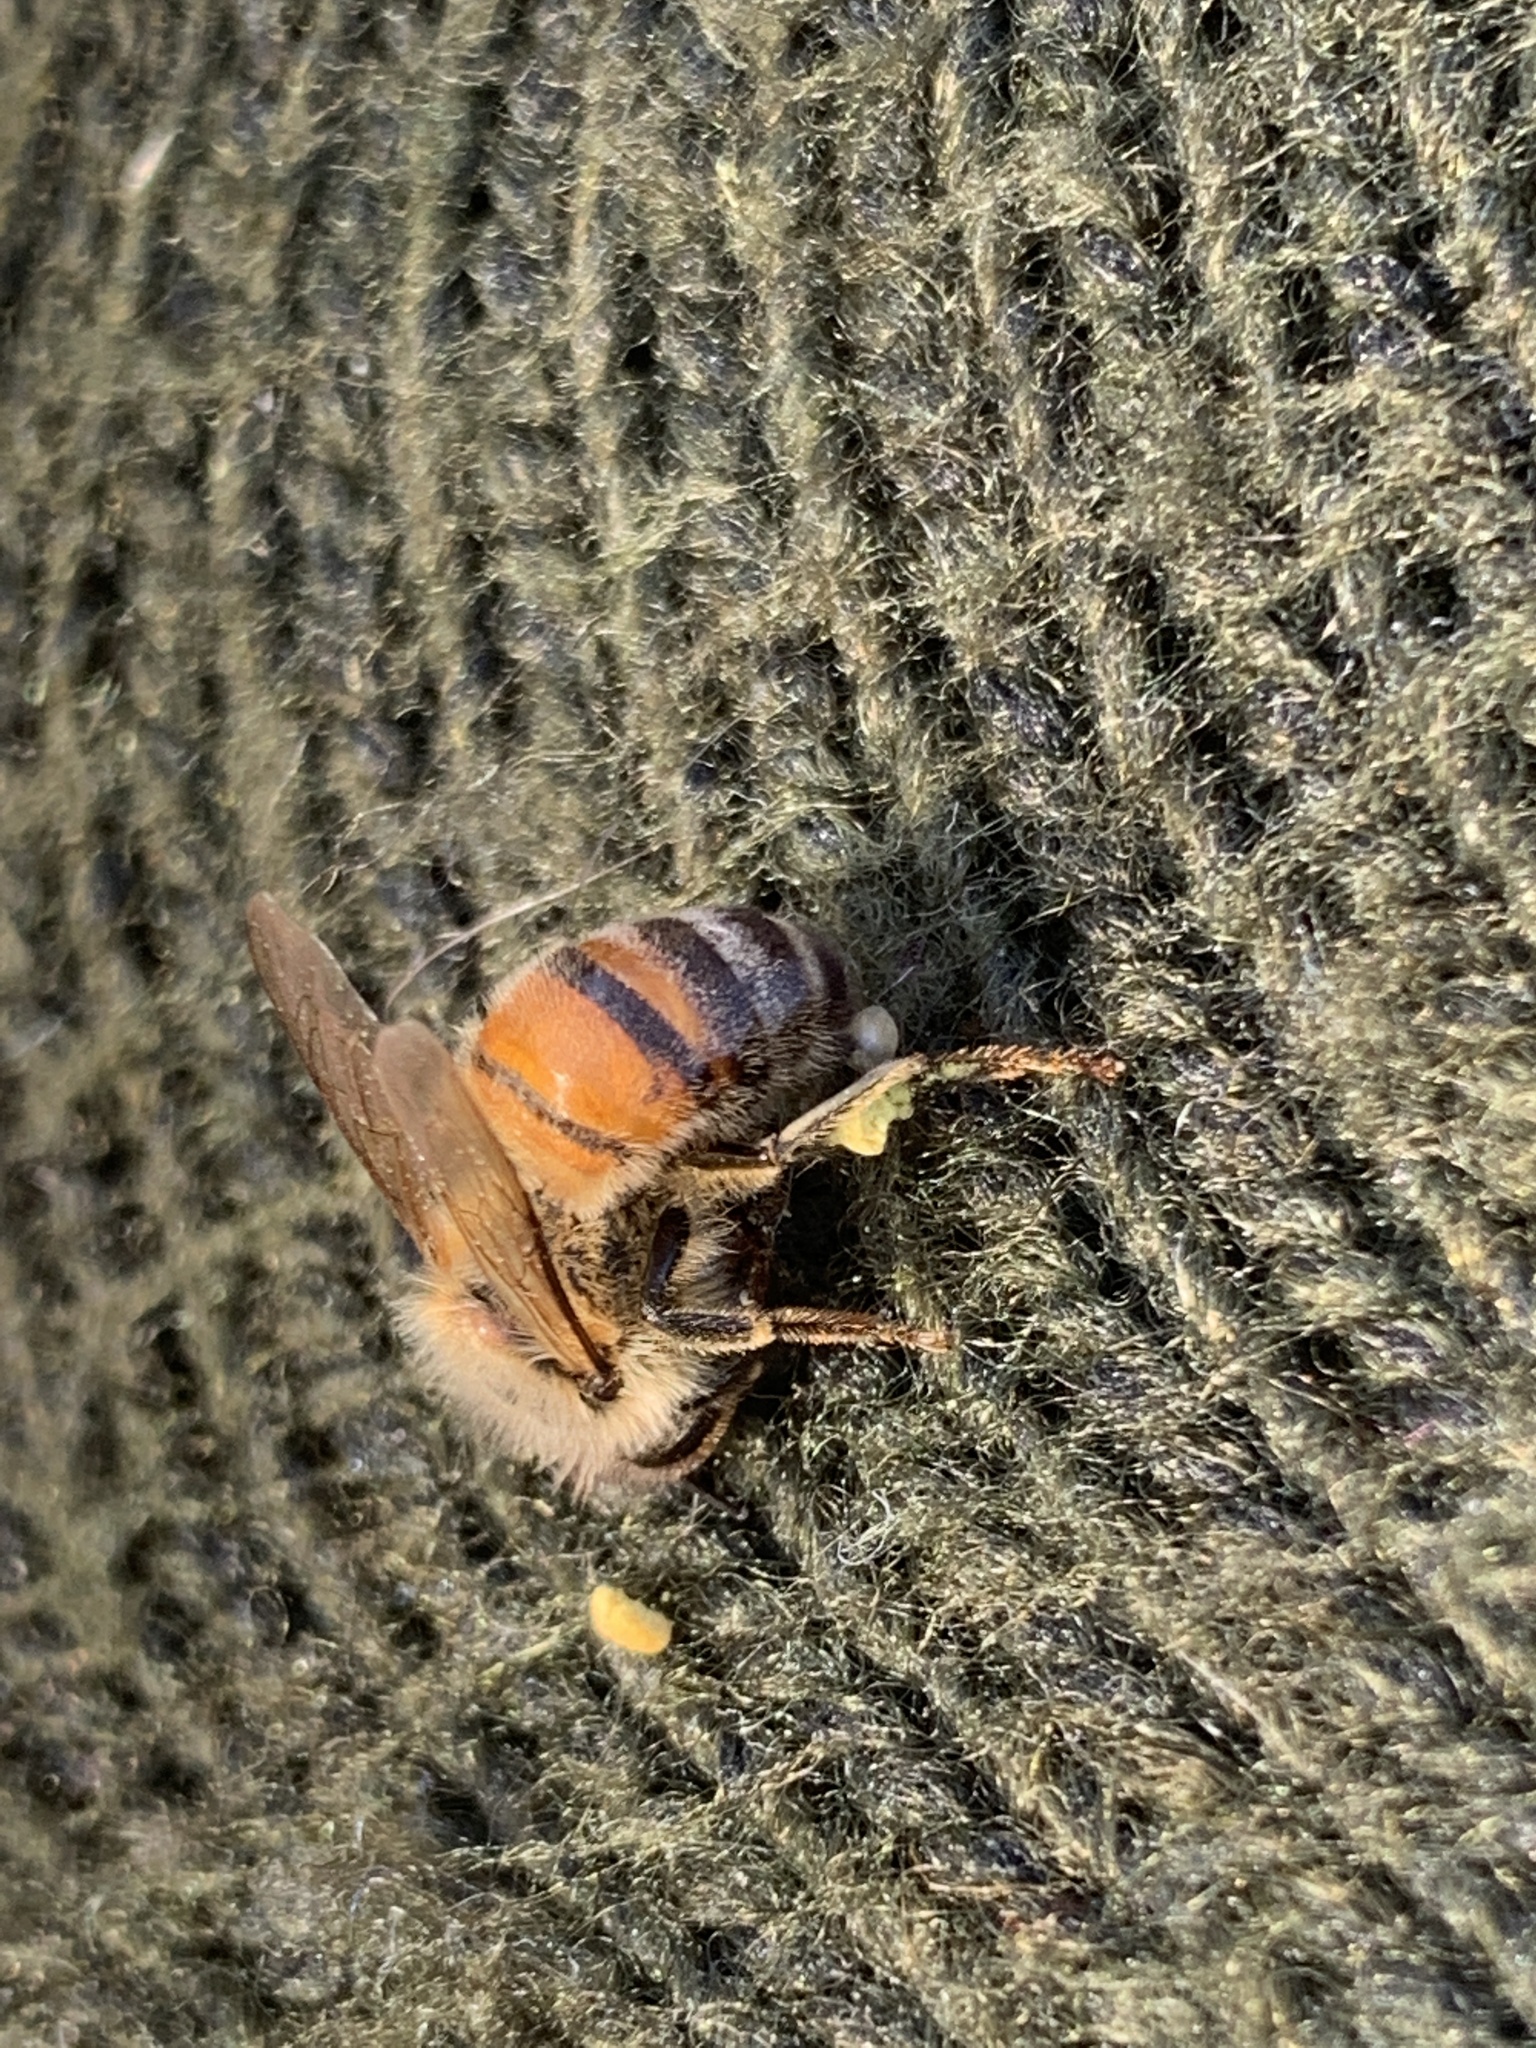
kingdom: Animalia
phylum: Arthropoda
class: Insecta
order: Hymenoptera
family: Apidae
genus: Apis
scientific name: Apis mellifera
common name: Honey bee
